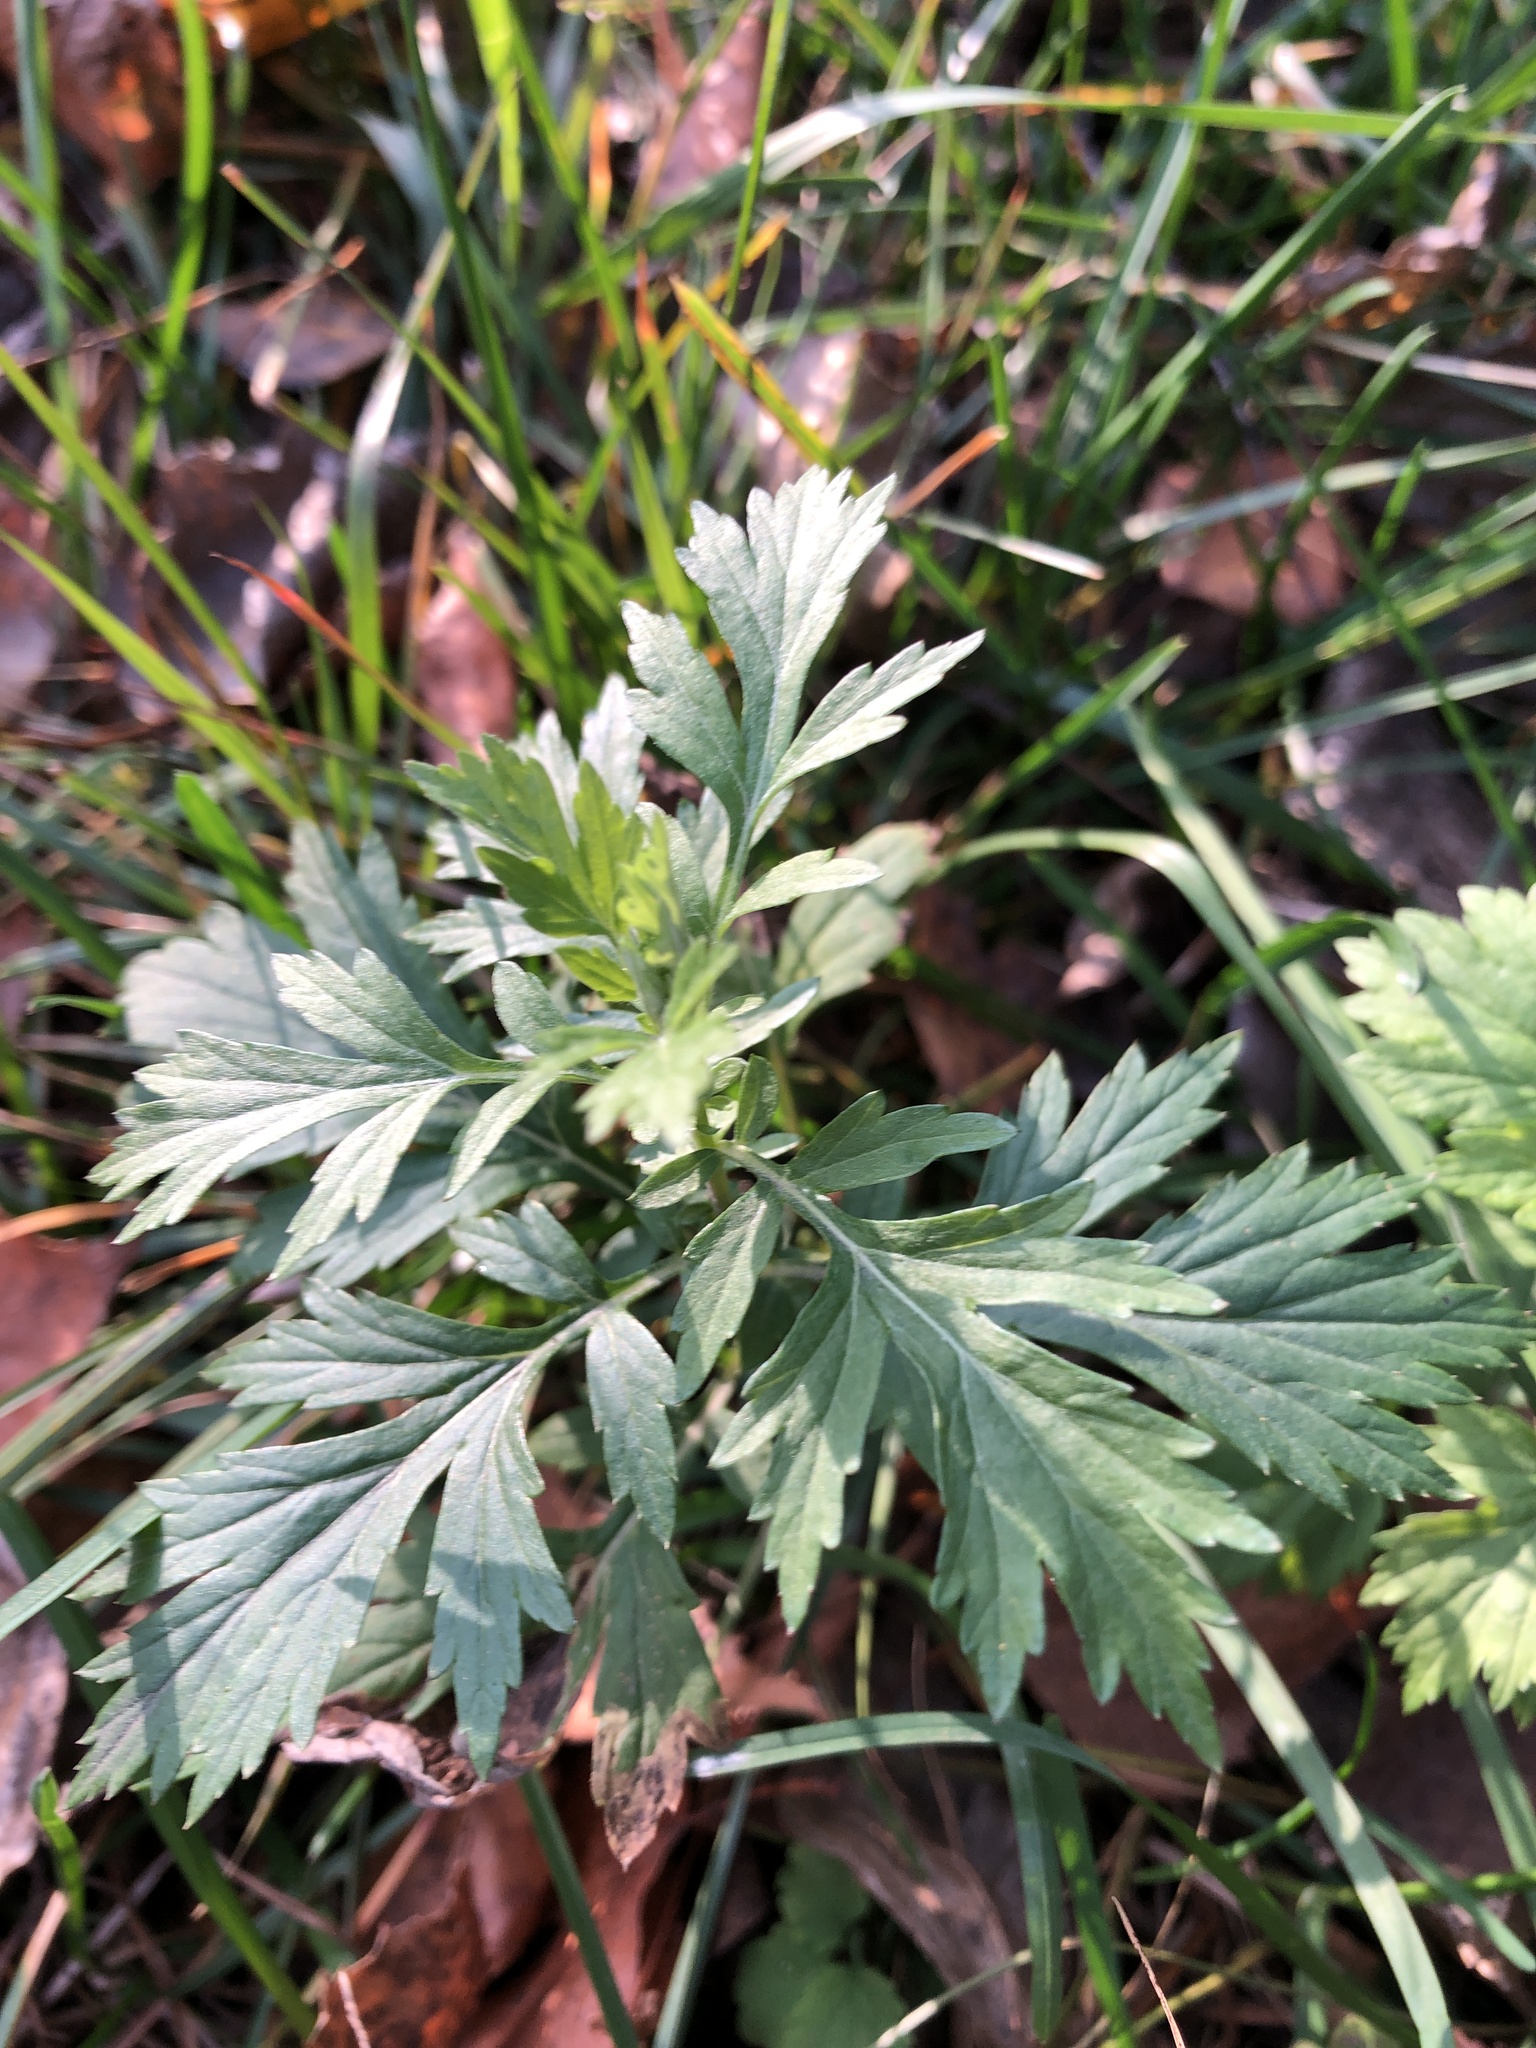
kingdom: Plantae
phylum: Tracheophyta
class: Magnoliopsida
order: Asterales
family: Asteraceae
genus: Artemisia
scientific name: Artemisia vulgaris
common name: Mugwort
